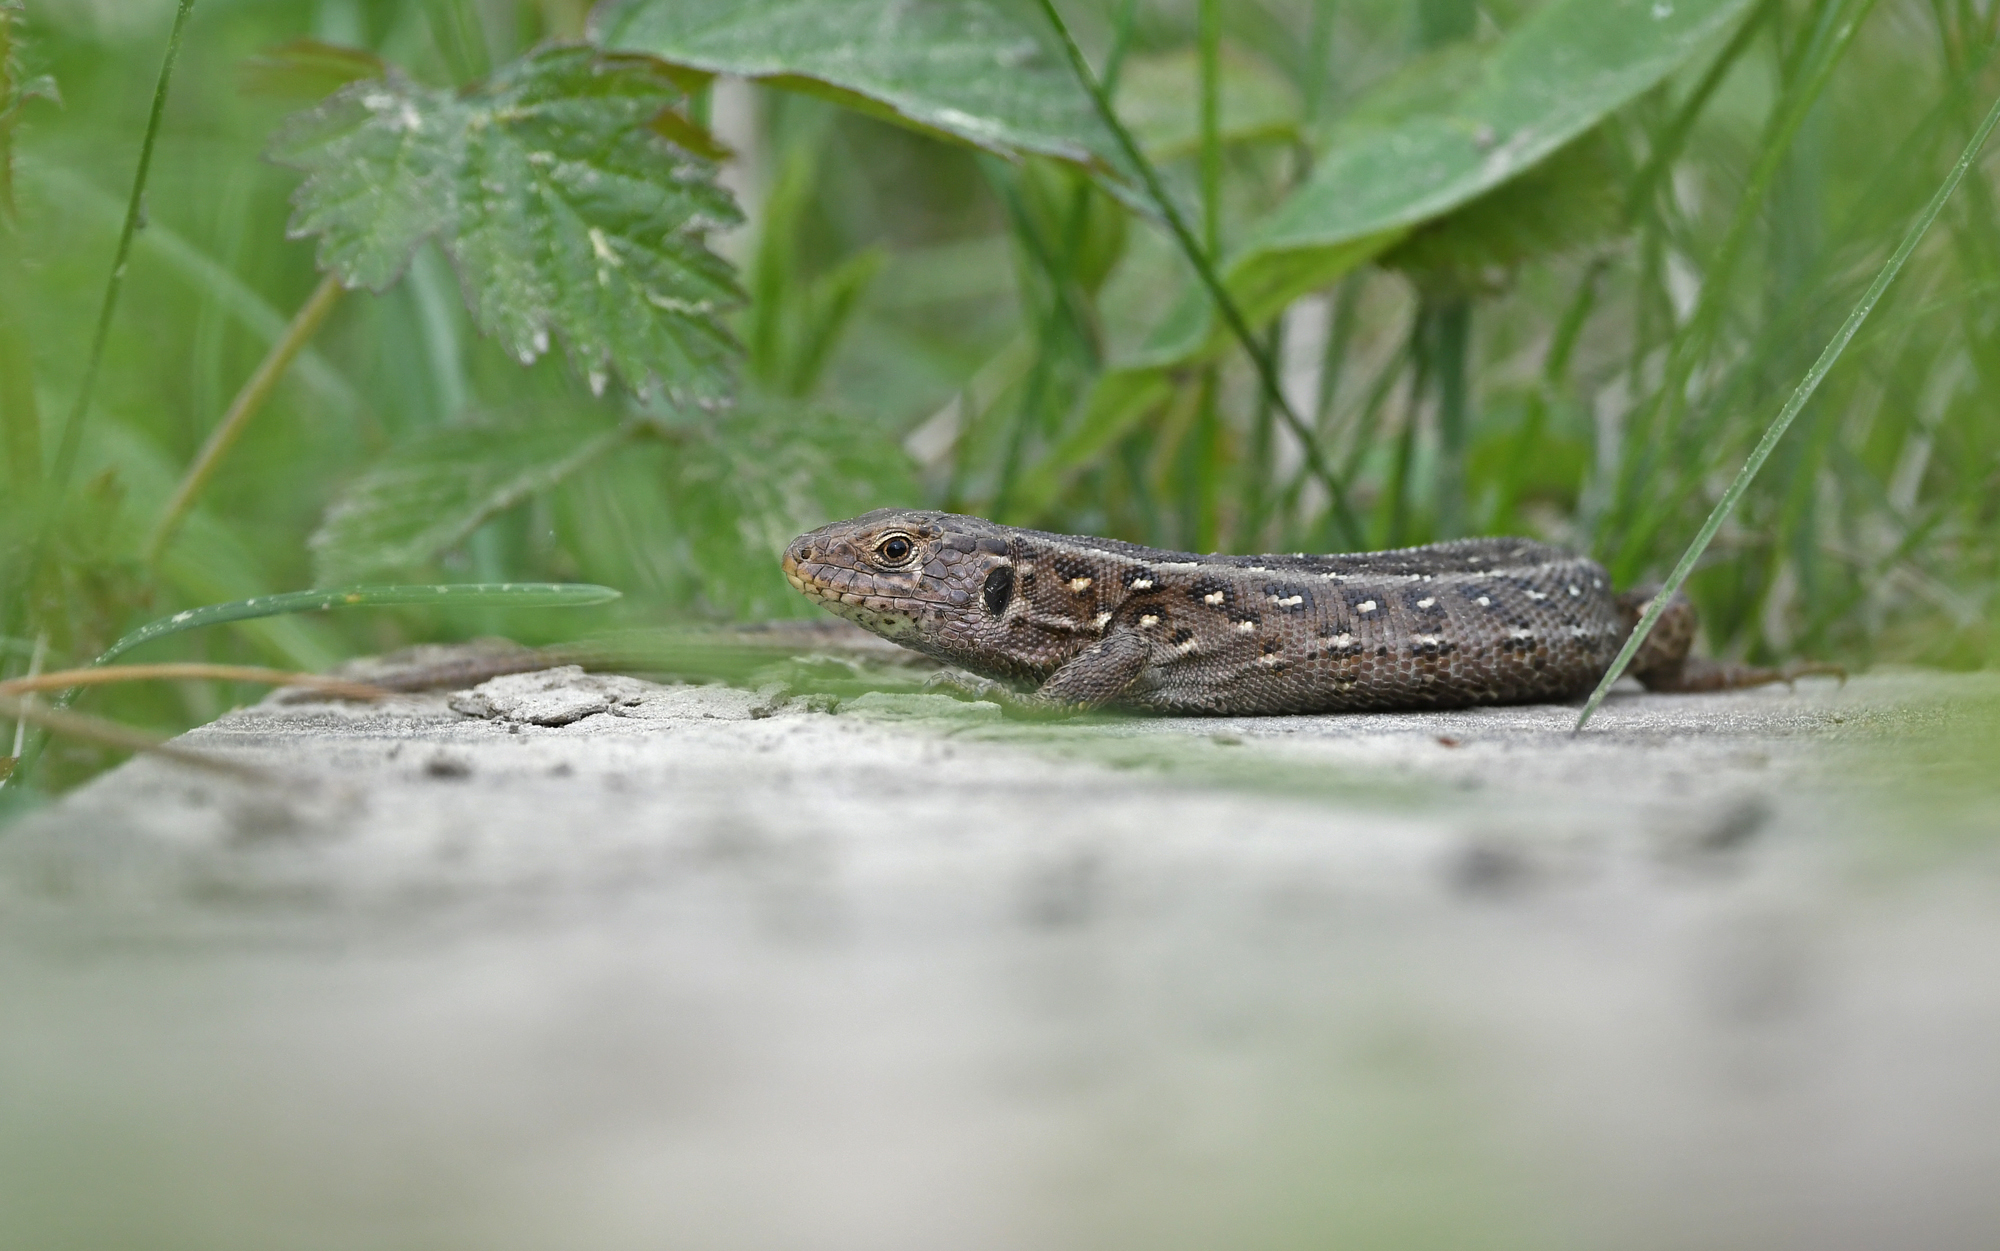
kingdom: Animalia
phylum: Chordata
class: Squamata
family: Lacertidae
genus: Lacerta
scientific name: Lacerta agilis
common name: Sand lizard
